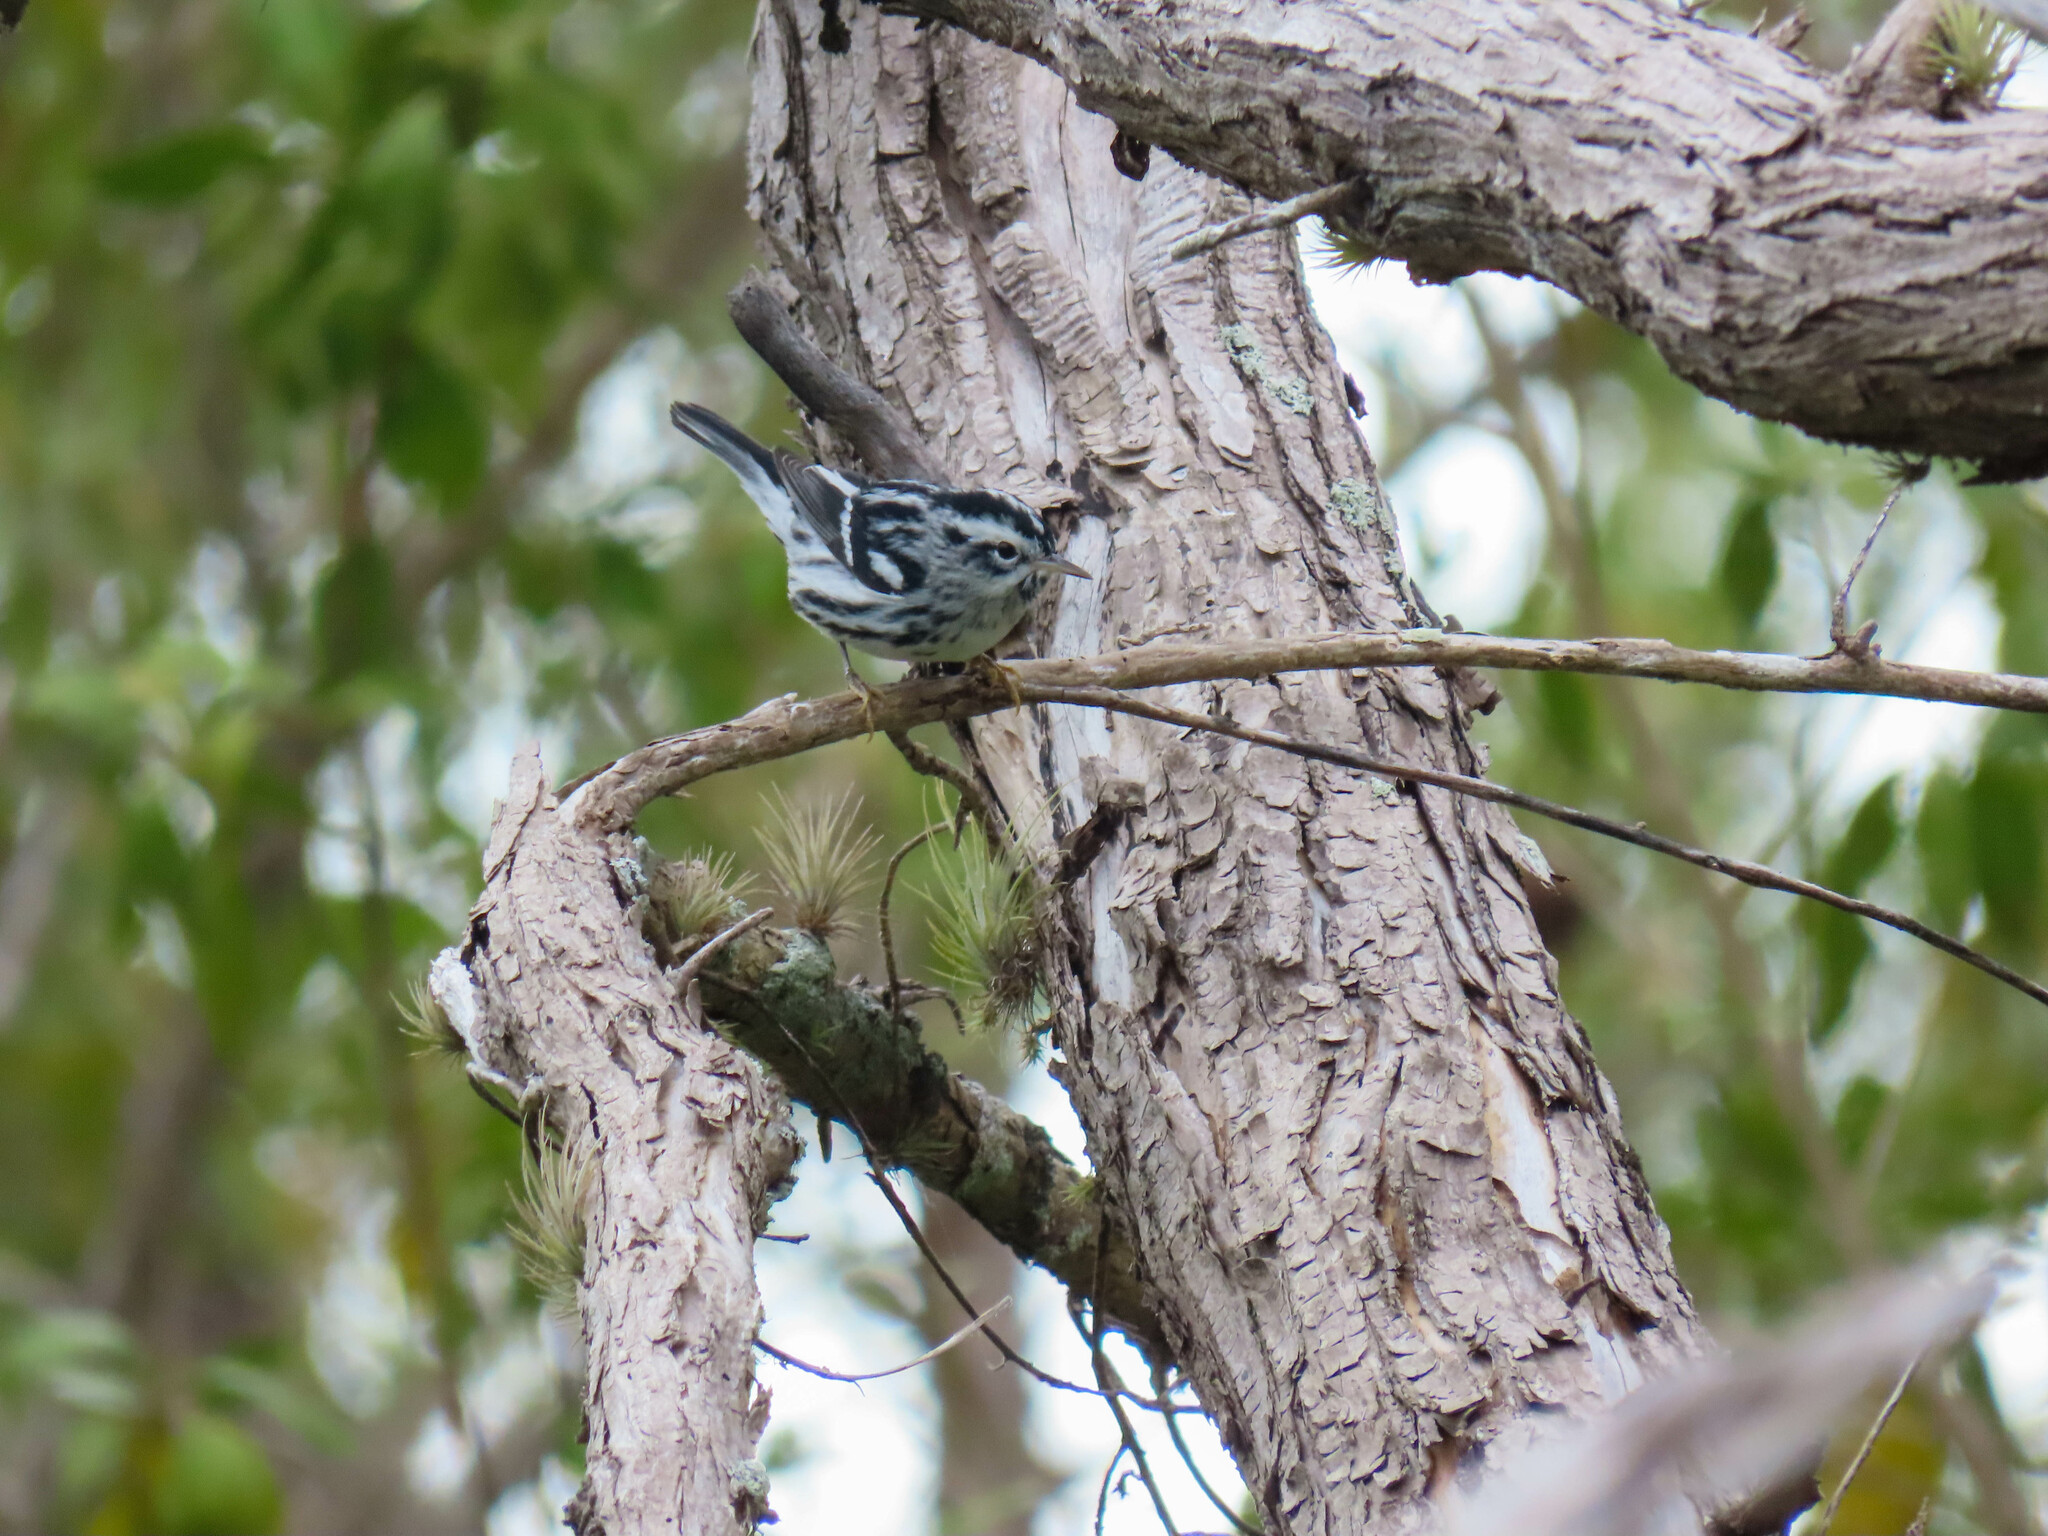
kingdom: Animalia
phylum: Chordata
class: Aves
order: Passeriformes
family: Parulidae
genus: Mniotilta
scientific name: Mniotilta varia
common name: Black-and-white warbler
